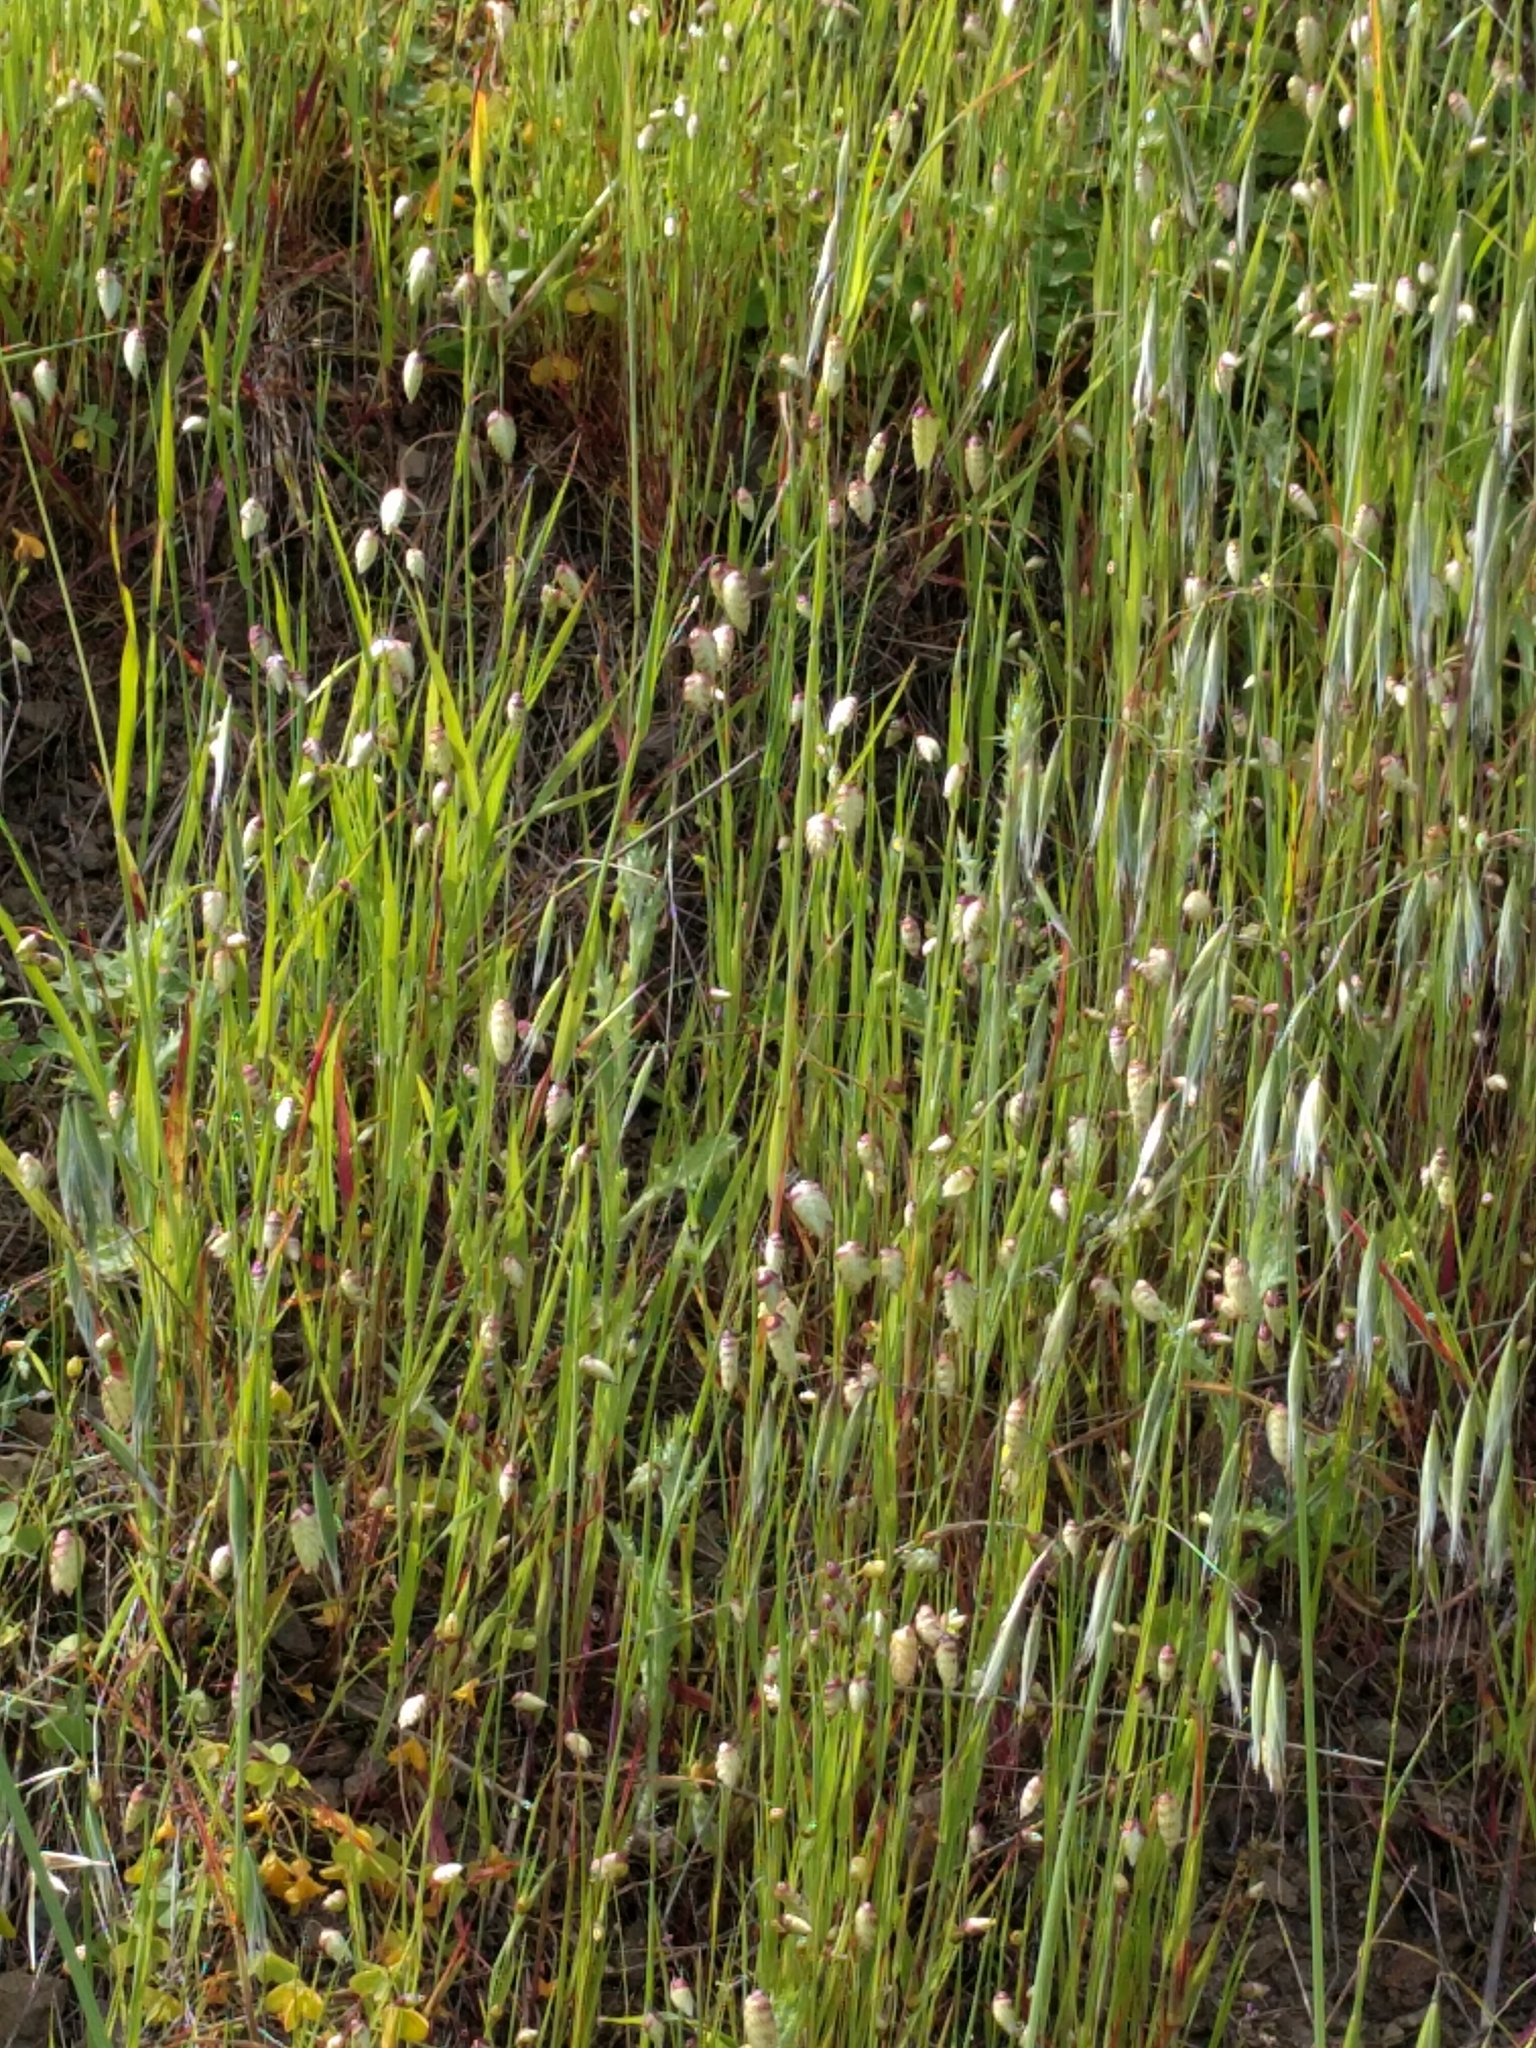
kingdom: Plantae
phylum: Tracheophyta
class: Liliopsida
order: Poales
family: Poaceae
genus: Briza
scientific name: Briza maxima
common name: Big quakinggrass
